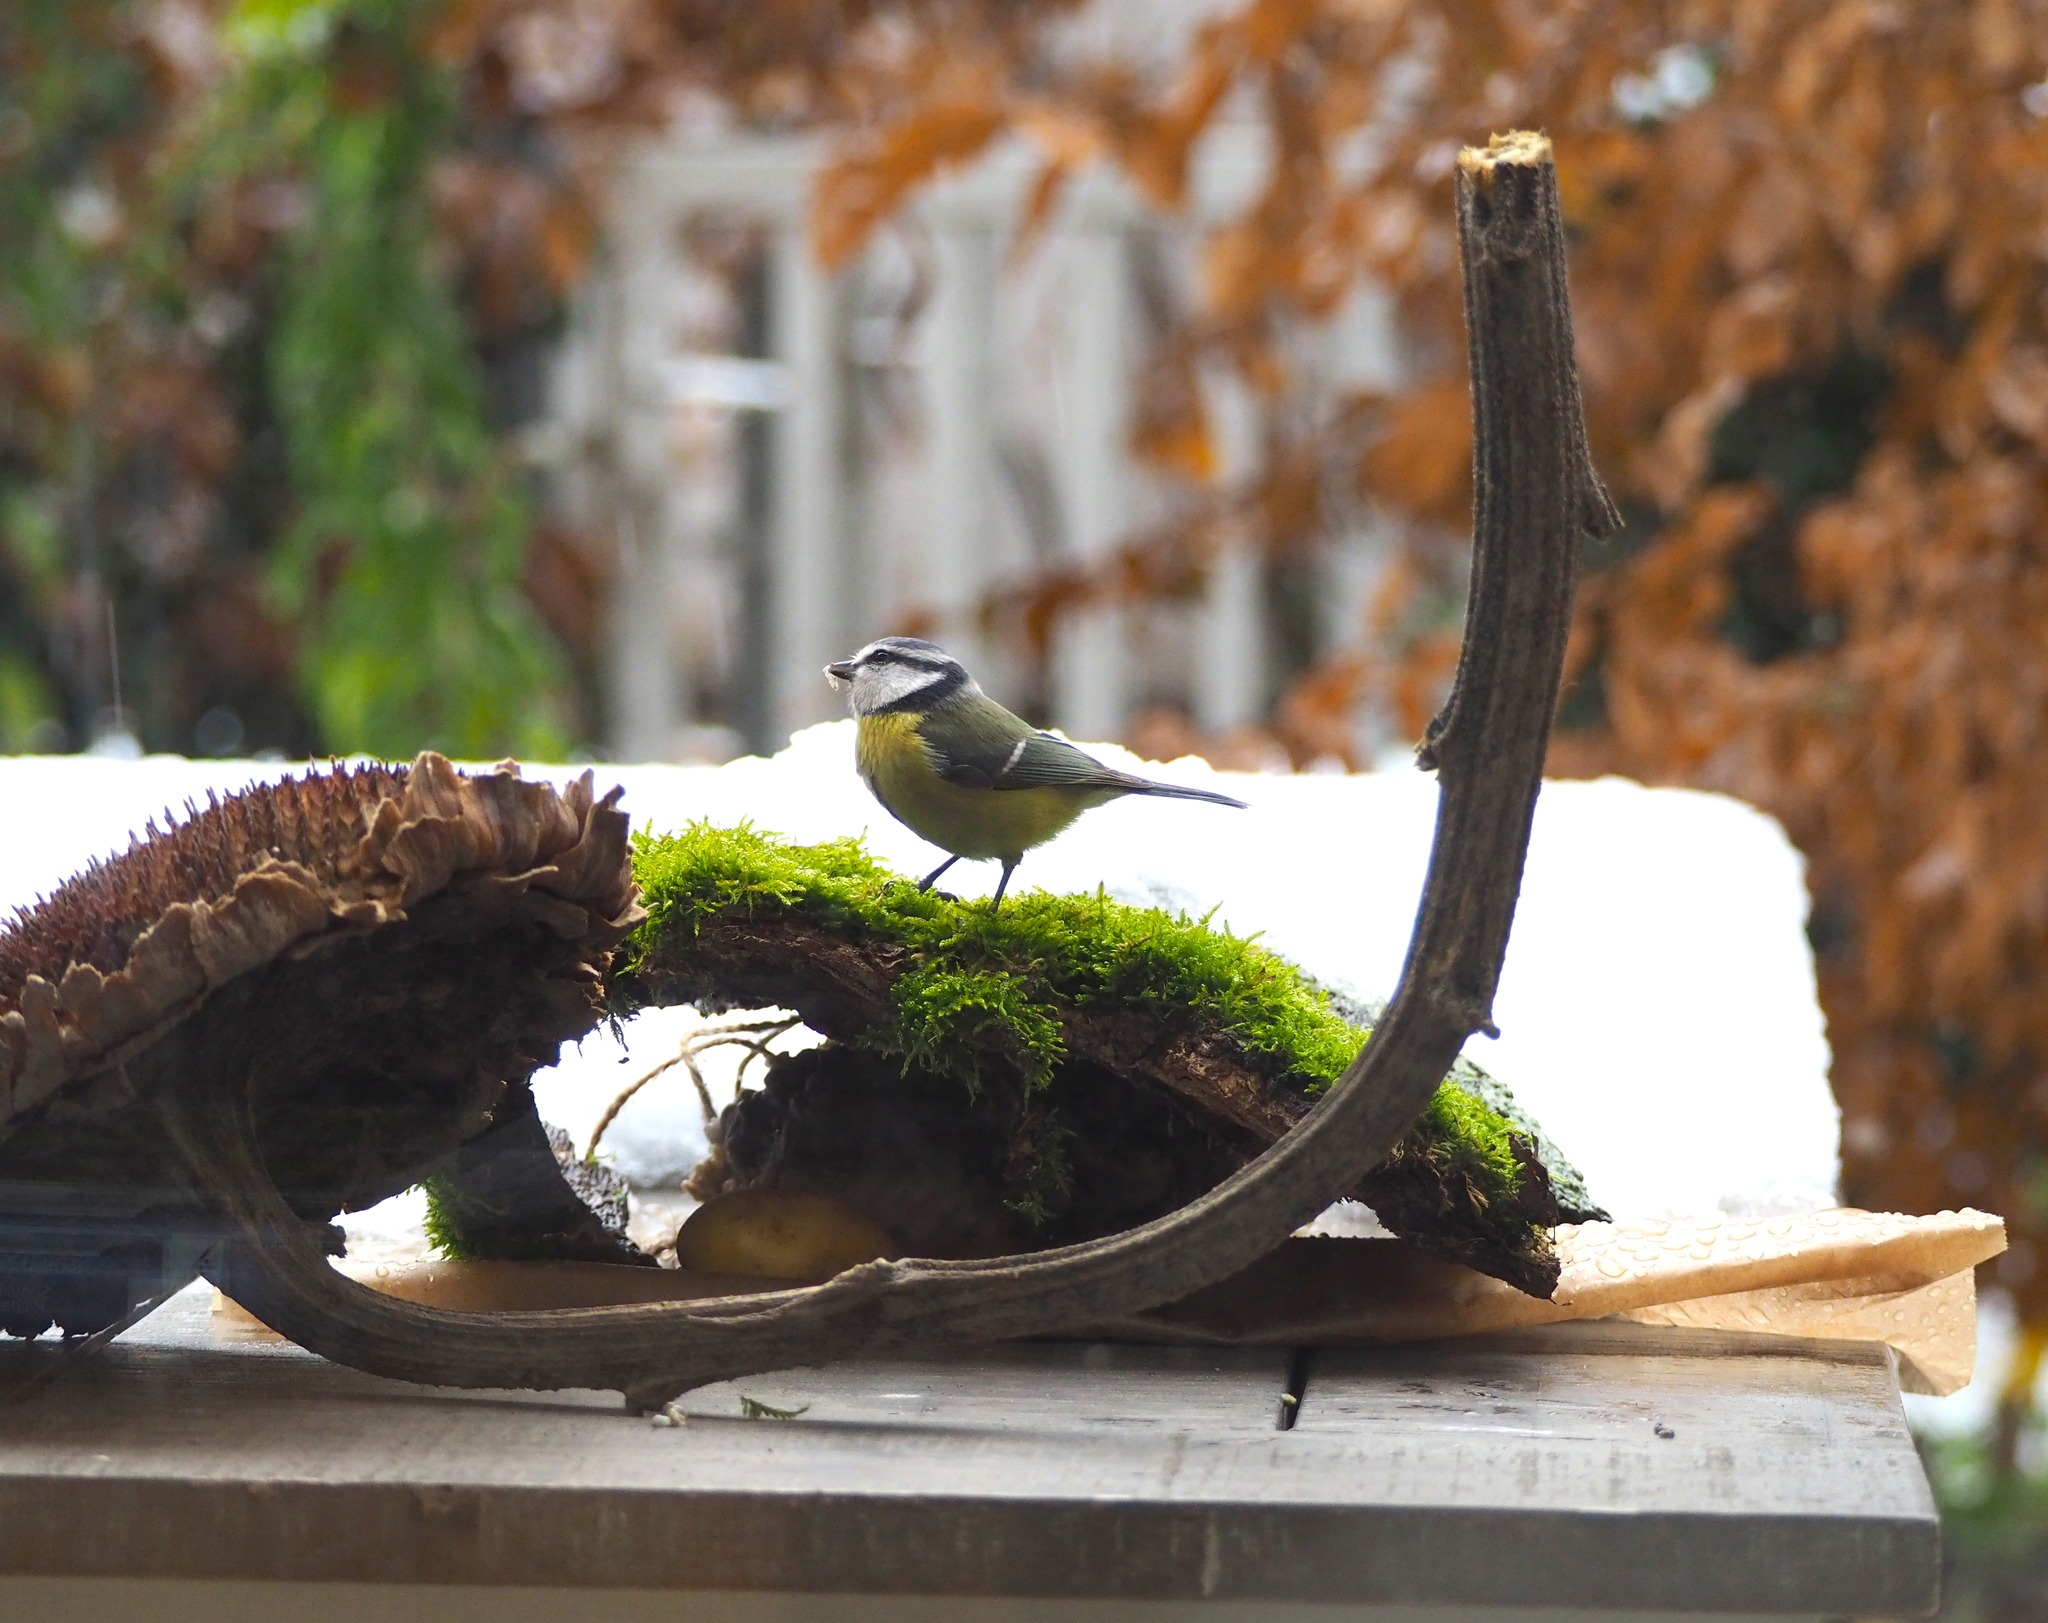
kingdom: Animalia
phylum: Chordata
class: Aves
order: Passeriformes
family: Paridae
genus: Cyanistes
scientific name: Cyanistes caeruleus
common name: Eurasian blue tit
